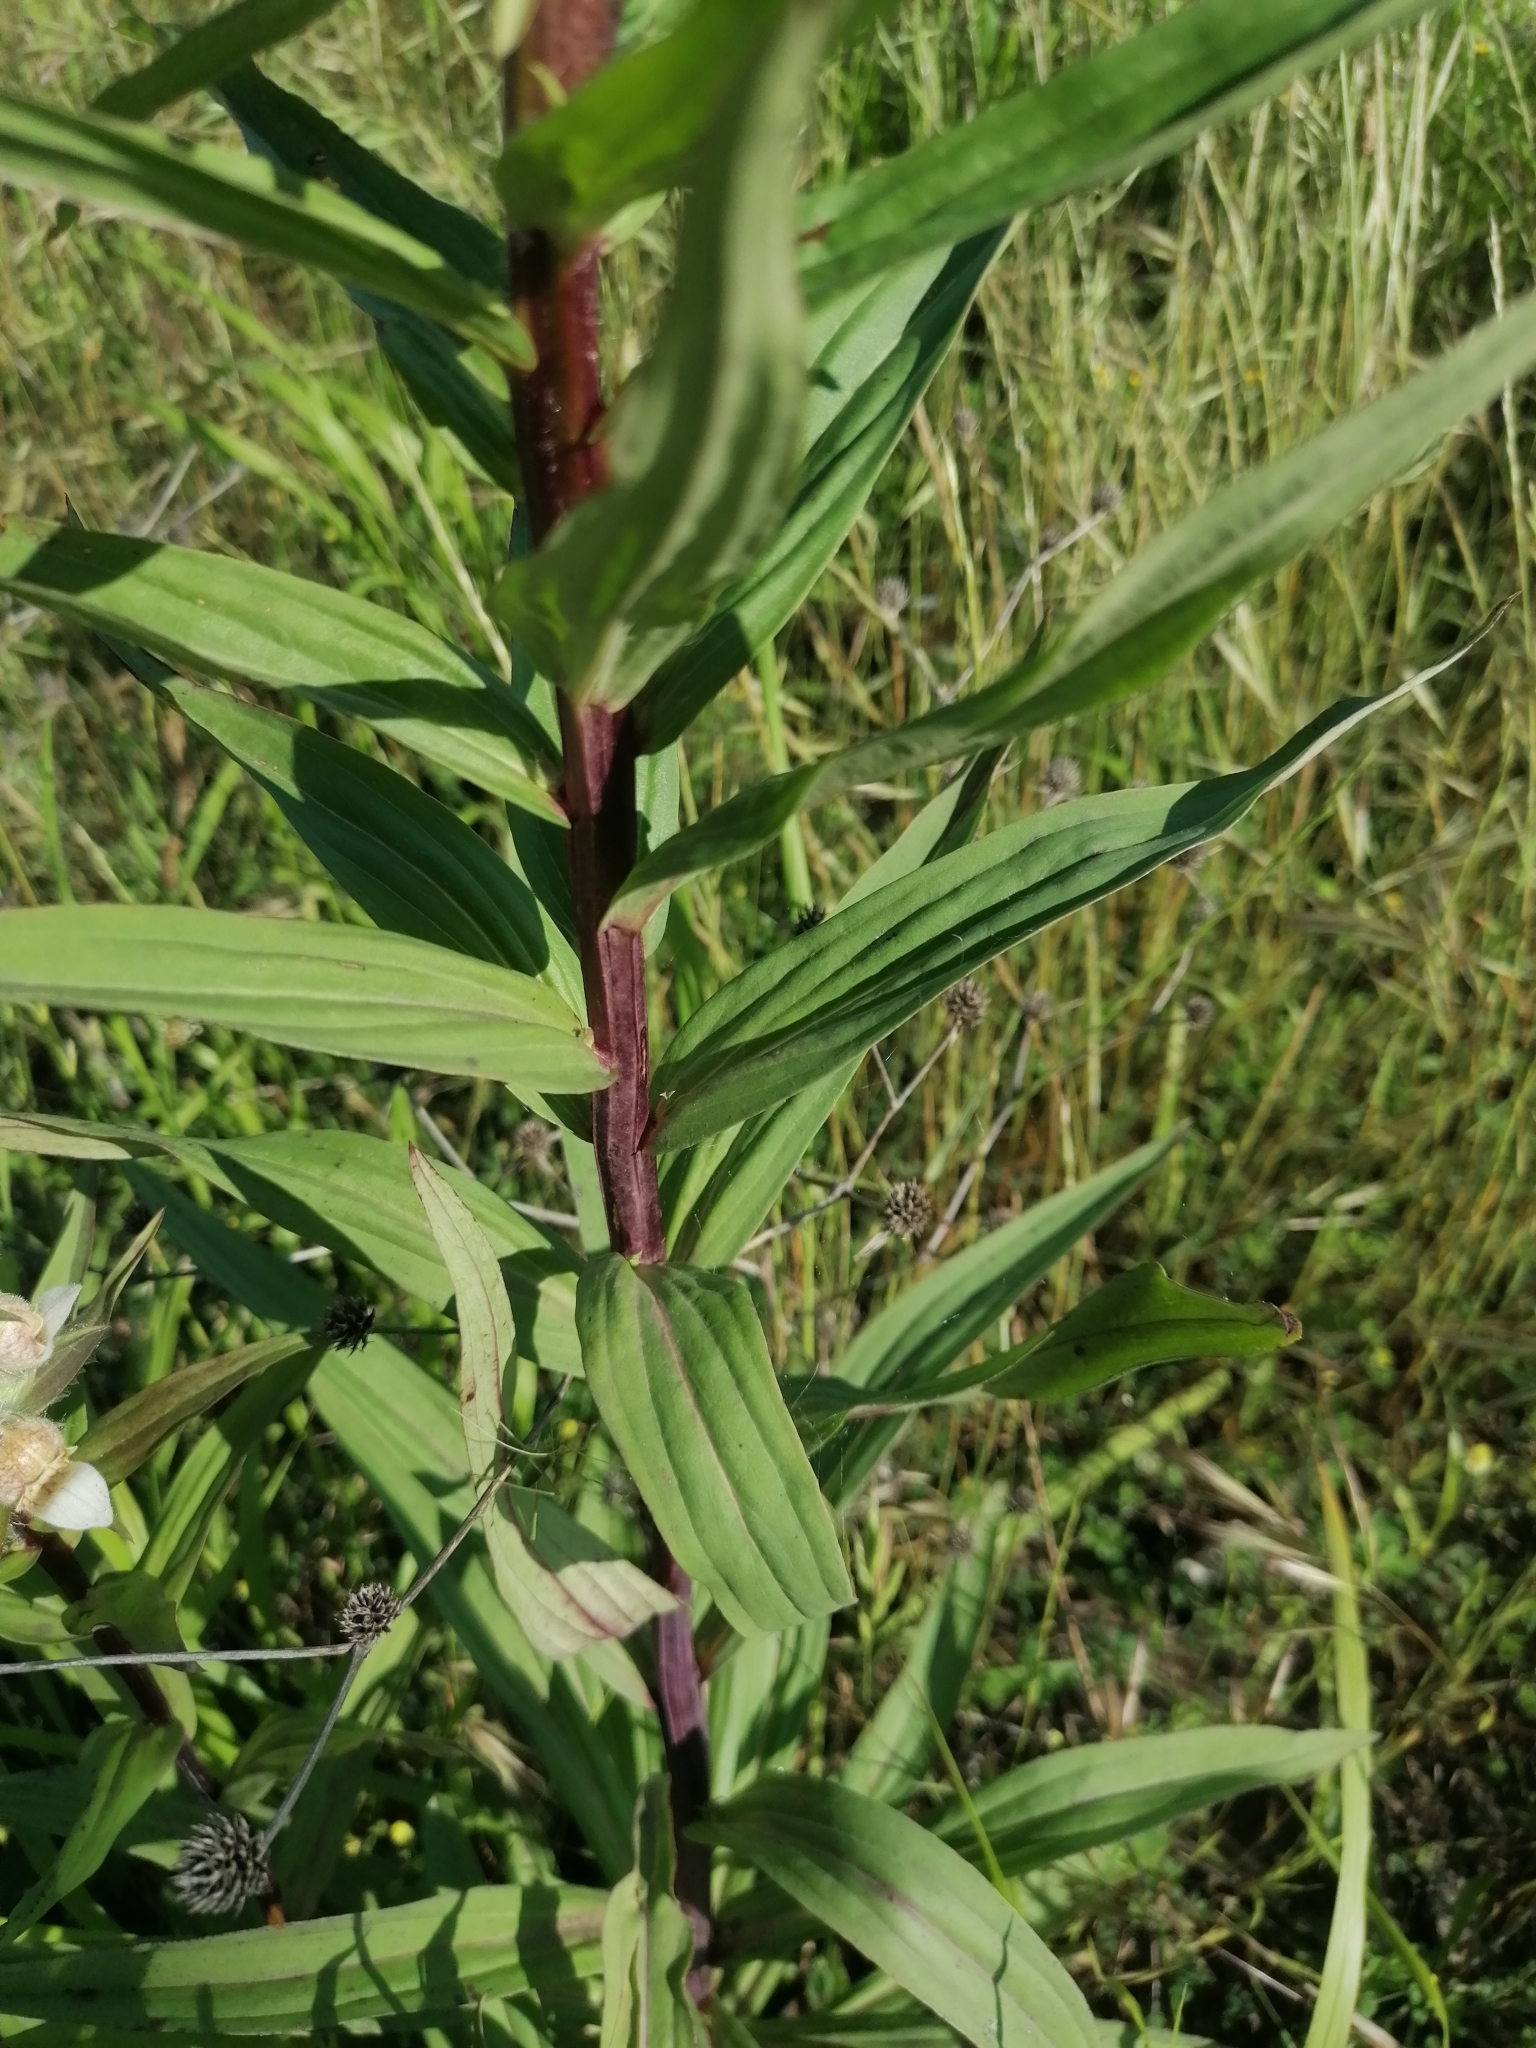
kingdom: Plantae
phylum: Tracheophyta
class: Magnoliopsida
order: Lamiales
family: Plantaginaceae
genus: Digitalis
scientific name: Digitalis lanata
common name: Grecian foxglove
